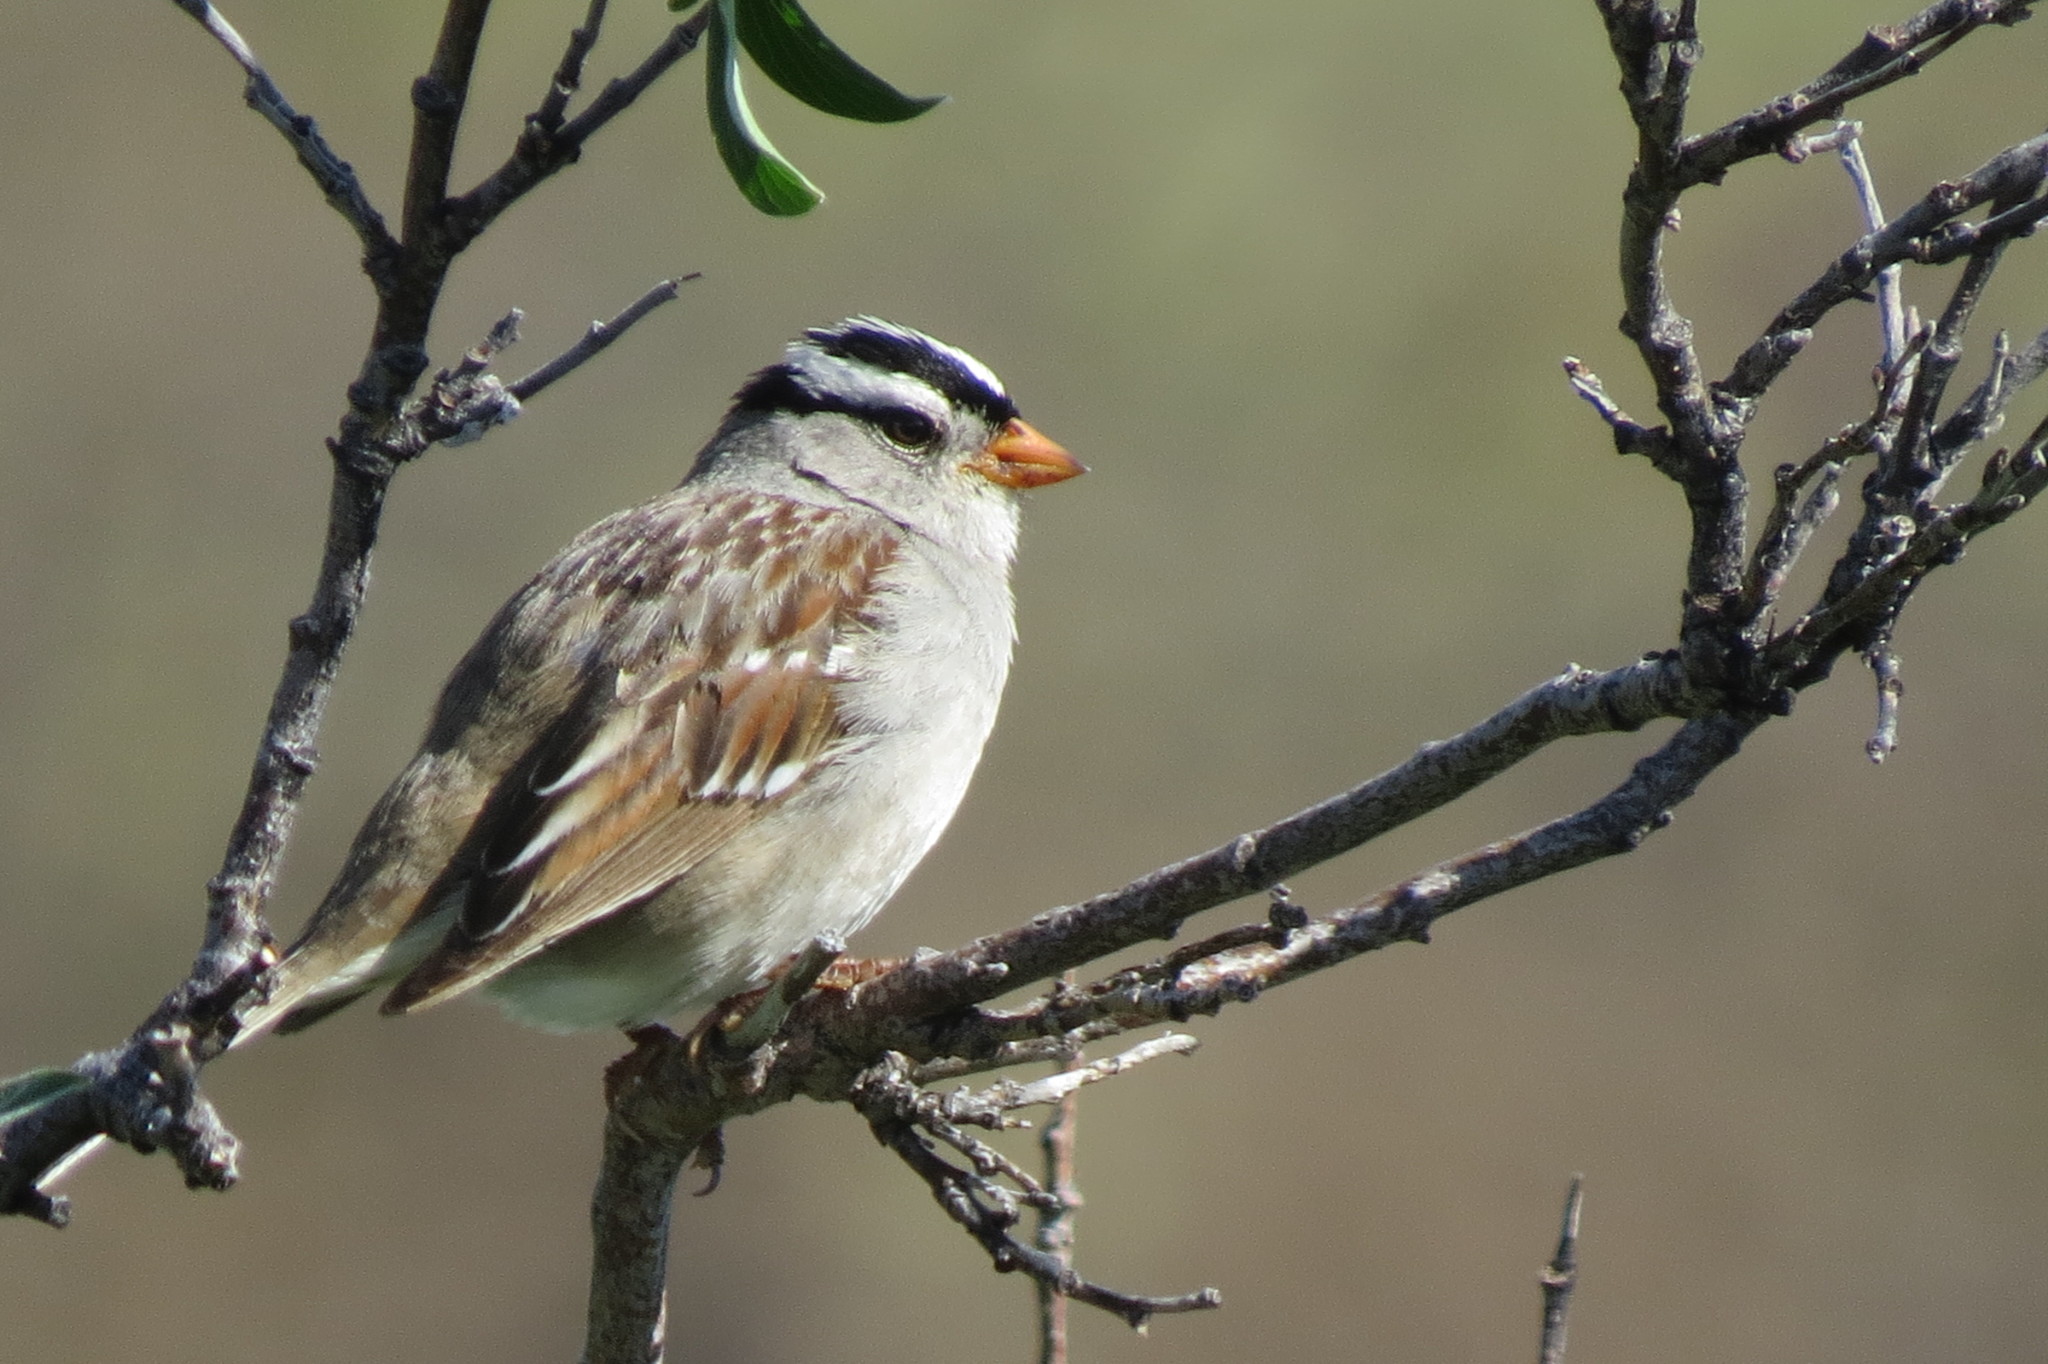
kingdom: Animalia
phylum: Chordata
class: Aves
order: Passeriformes
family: Passerellidae
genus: Zonotrichia
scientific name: Zonotrichia leucophrys
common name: White-crowned sparrow
